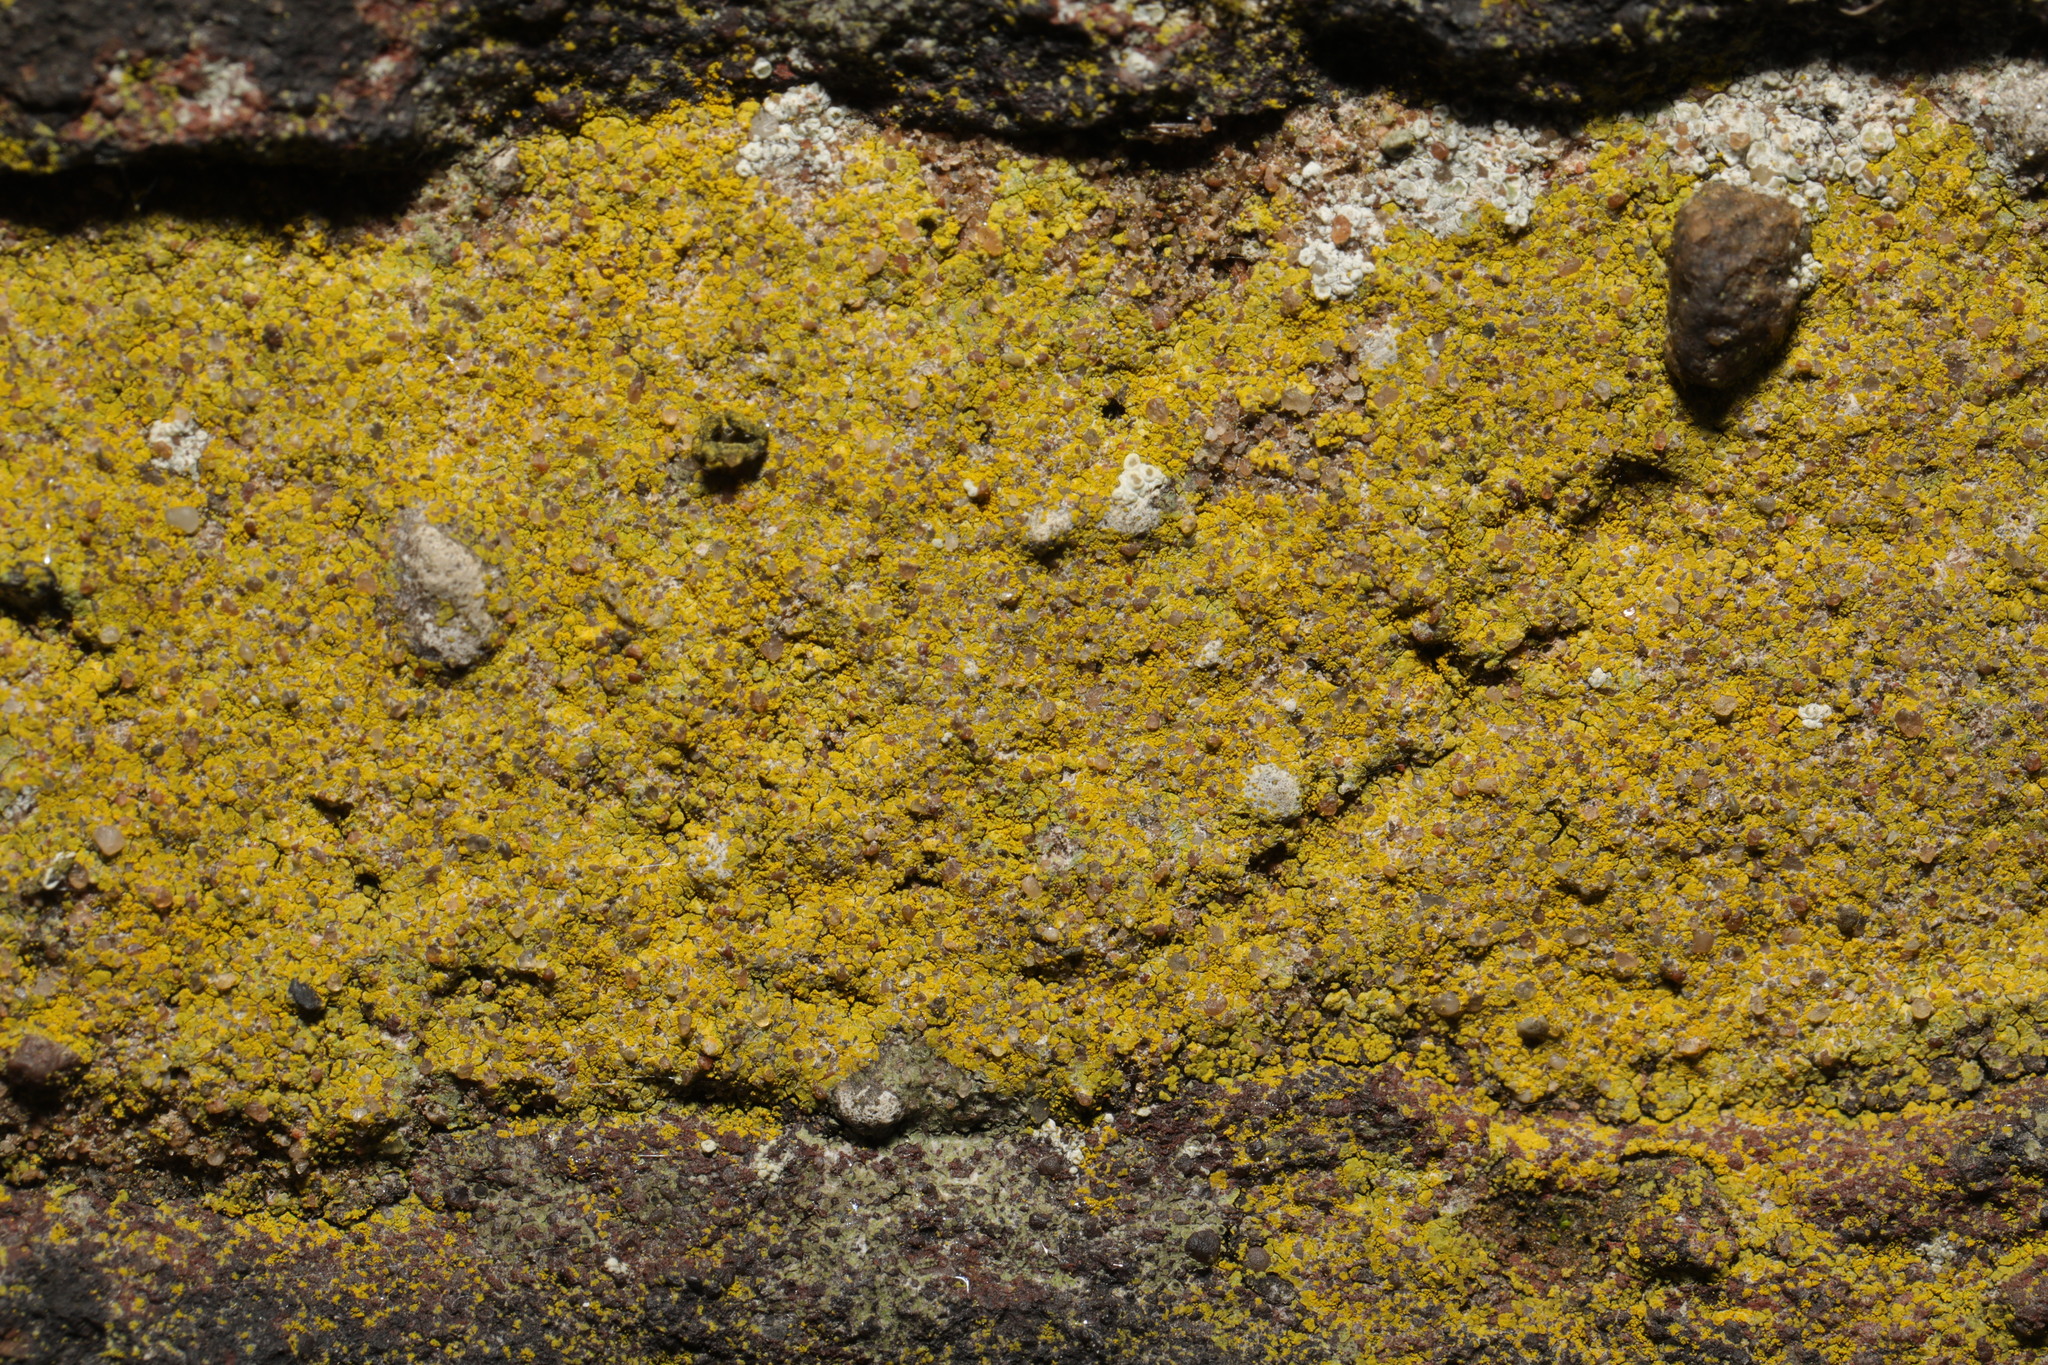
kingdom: Fungi
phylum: Ascomycota
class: Candelariomycetes
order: Candelariales
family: Candelariaceae
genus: Candelaria
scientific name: Candelaria concolor
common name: Candleflame lichen
